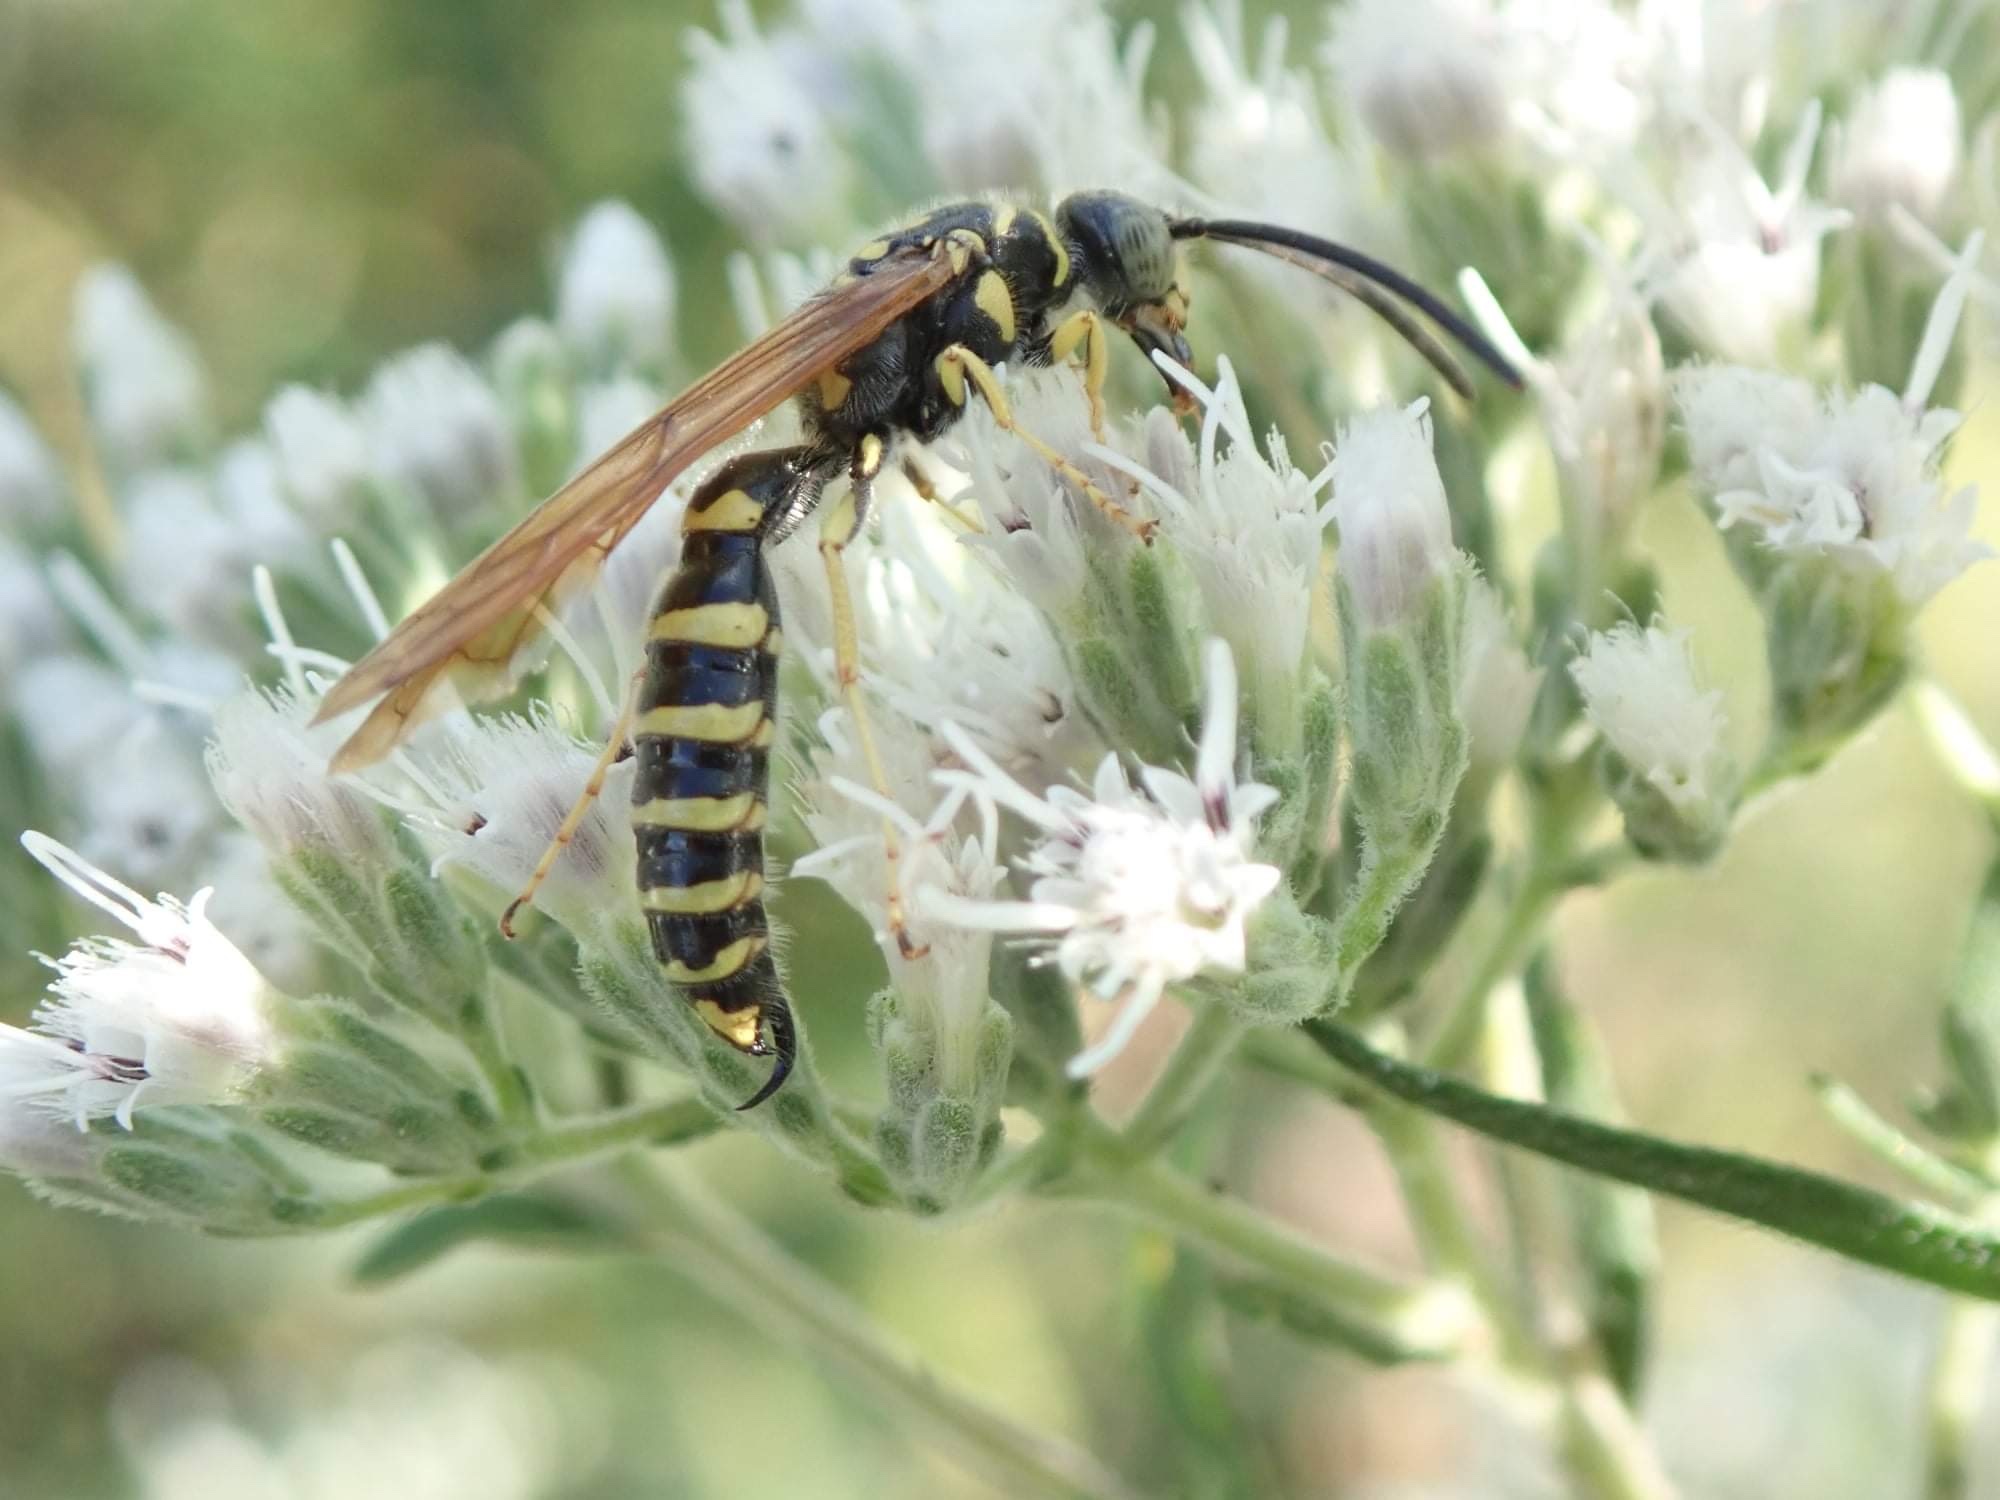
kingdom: Animalia
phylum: Arthropoda
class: Insecta
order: Hymenoptera
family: Tiphiidae
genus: Myzinum
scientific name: Myzinum quinquecinctum
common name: Five-banded thynnid wasp
